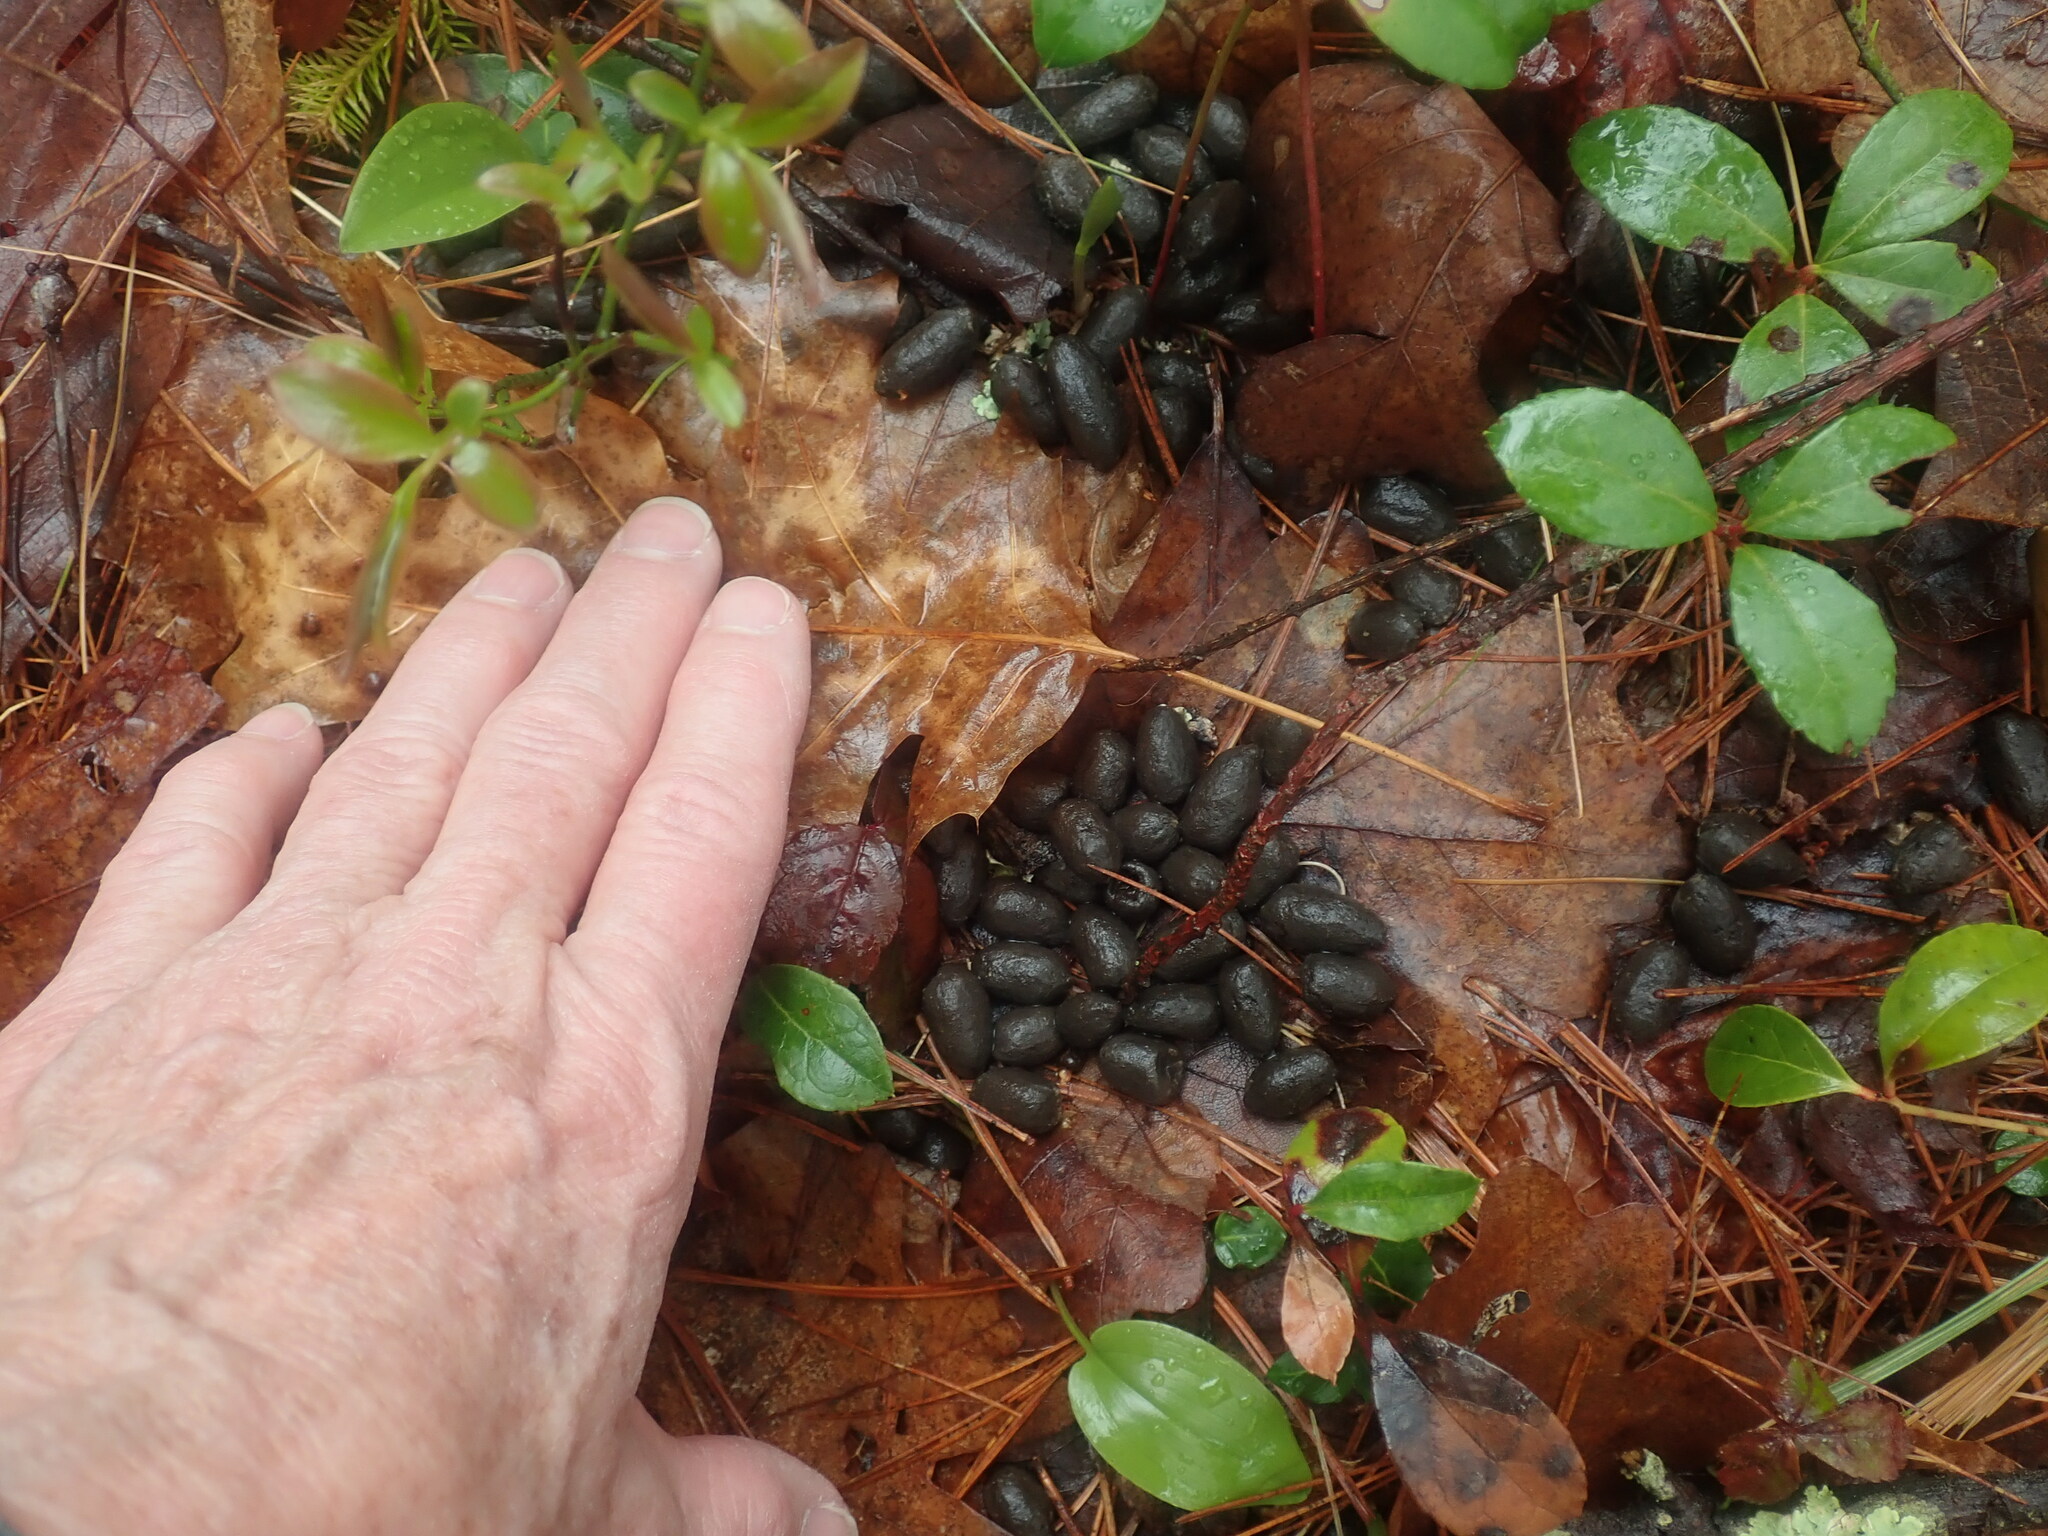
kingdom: Animalia
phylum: Chordata
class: Mammalia
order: Artiodactyla
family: Cervidae
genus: Odocoileus
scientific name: Odocoileus virginianus
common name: White-tailed deer
